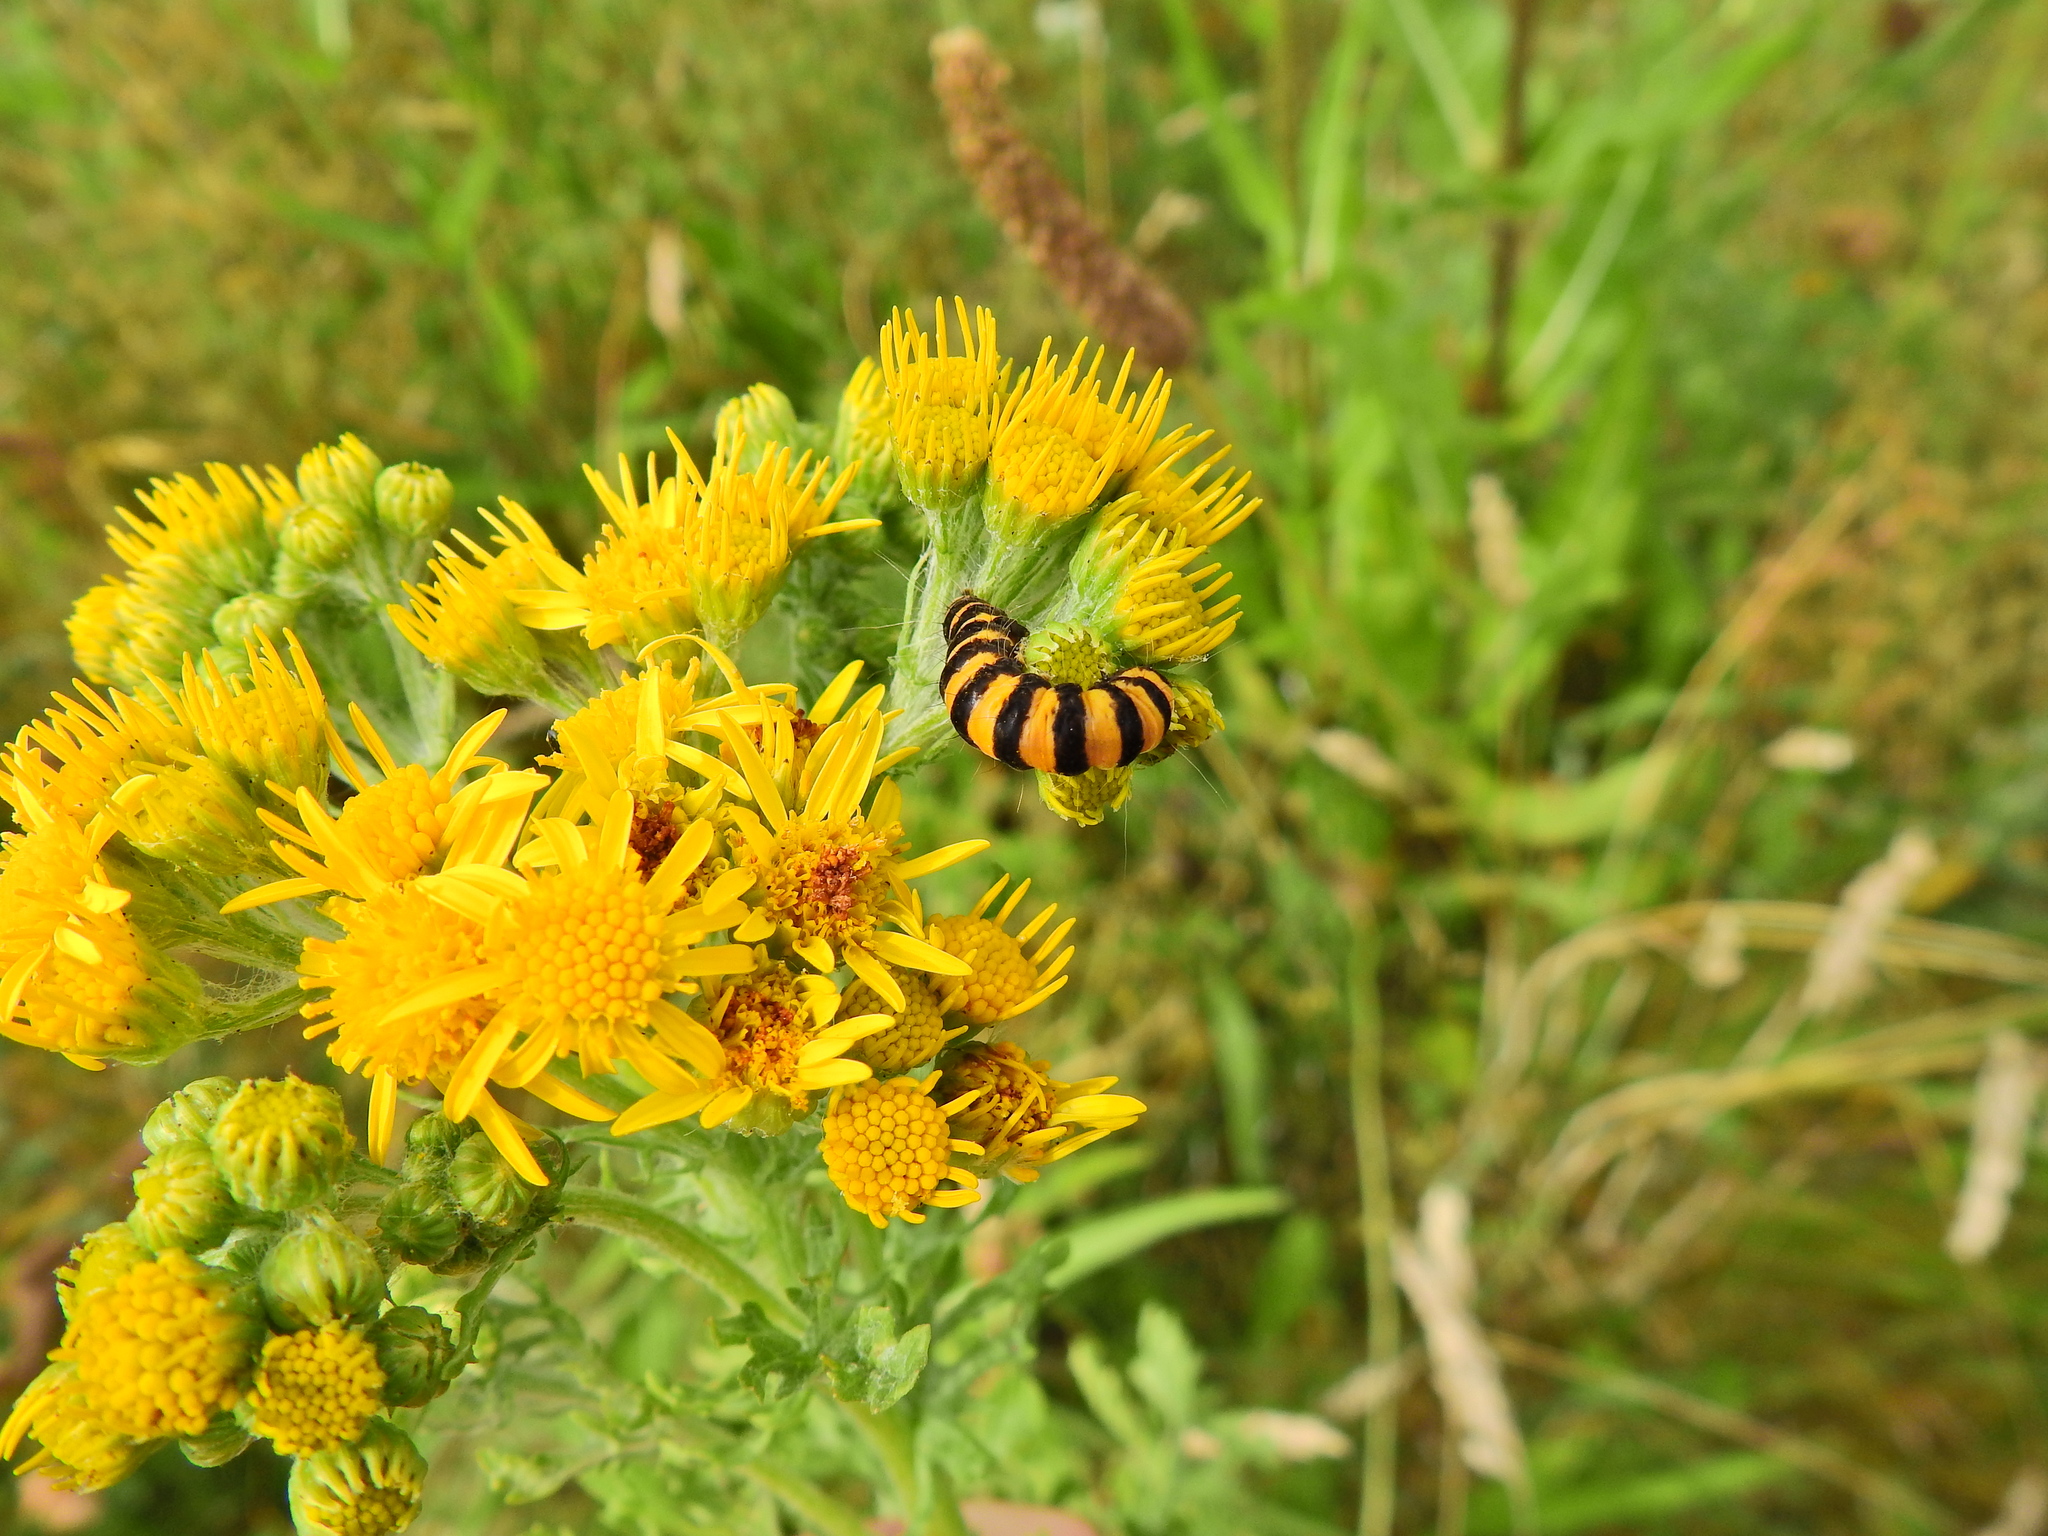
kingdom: Animalia
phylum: Arthropoda
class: Insecta
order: Lepidoptera
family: Erebidae
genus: Tyria
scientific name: Tyria jacobaeae
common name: Cinnabar
